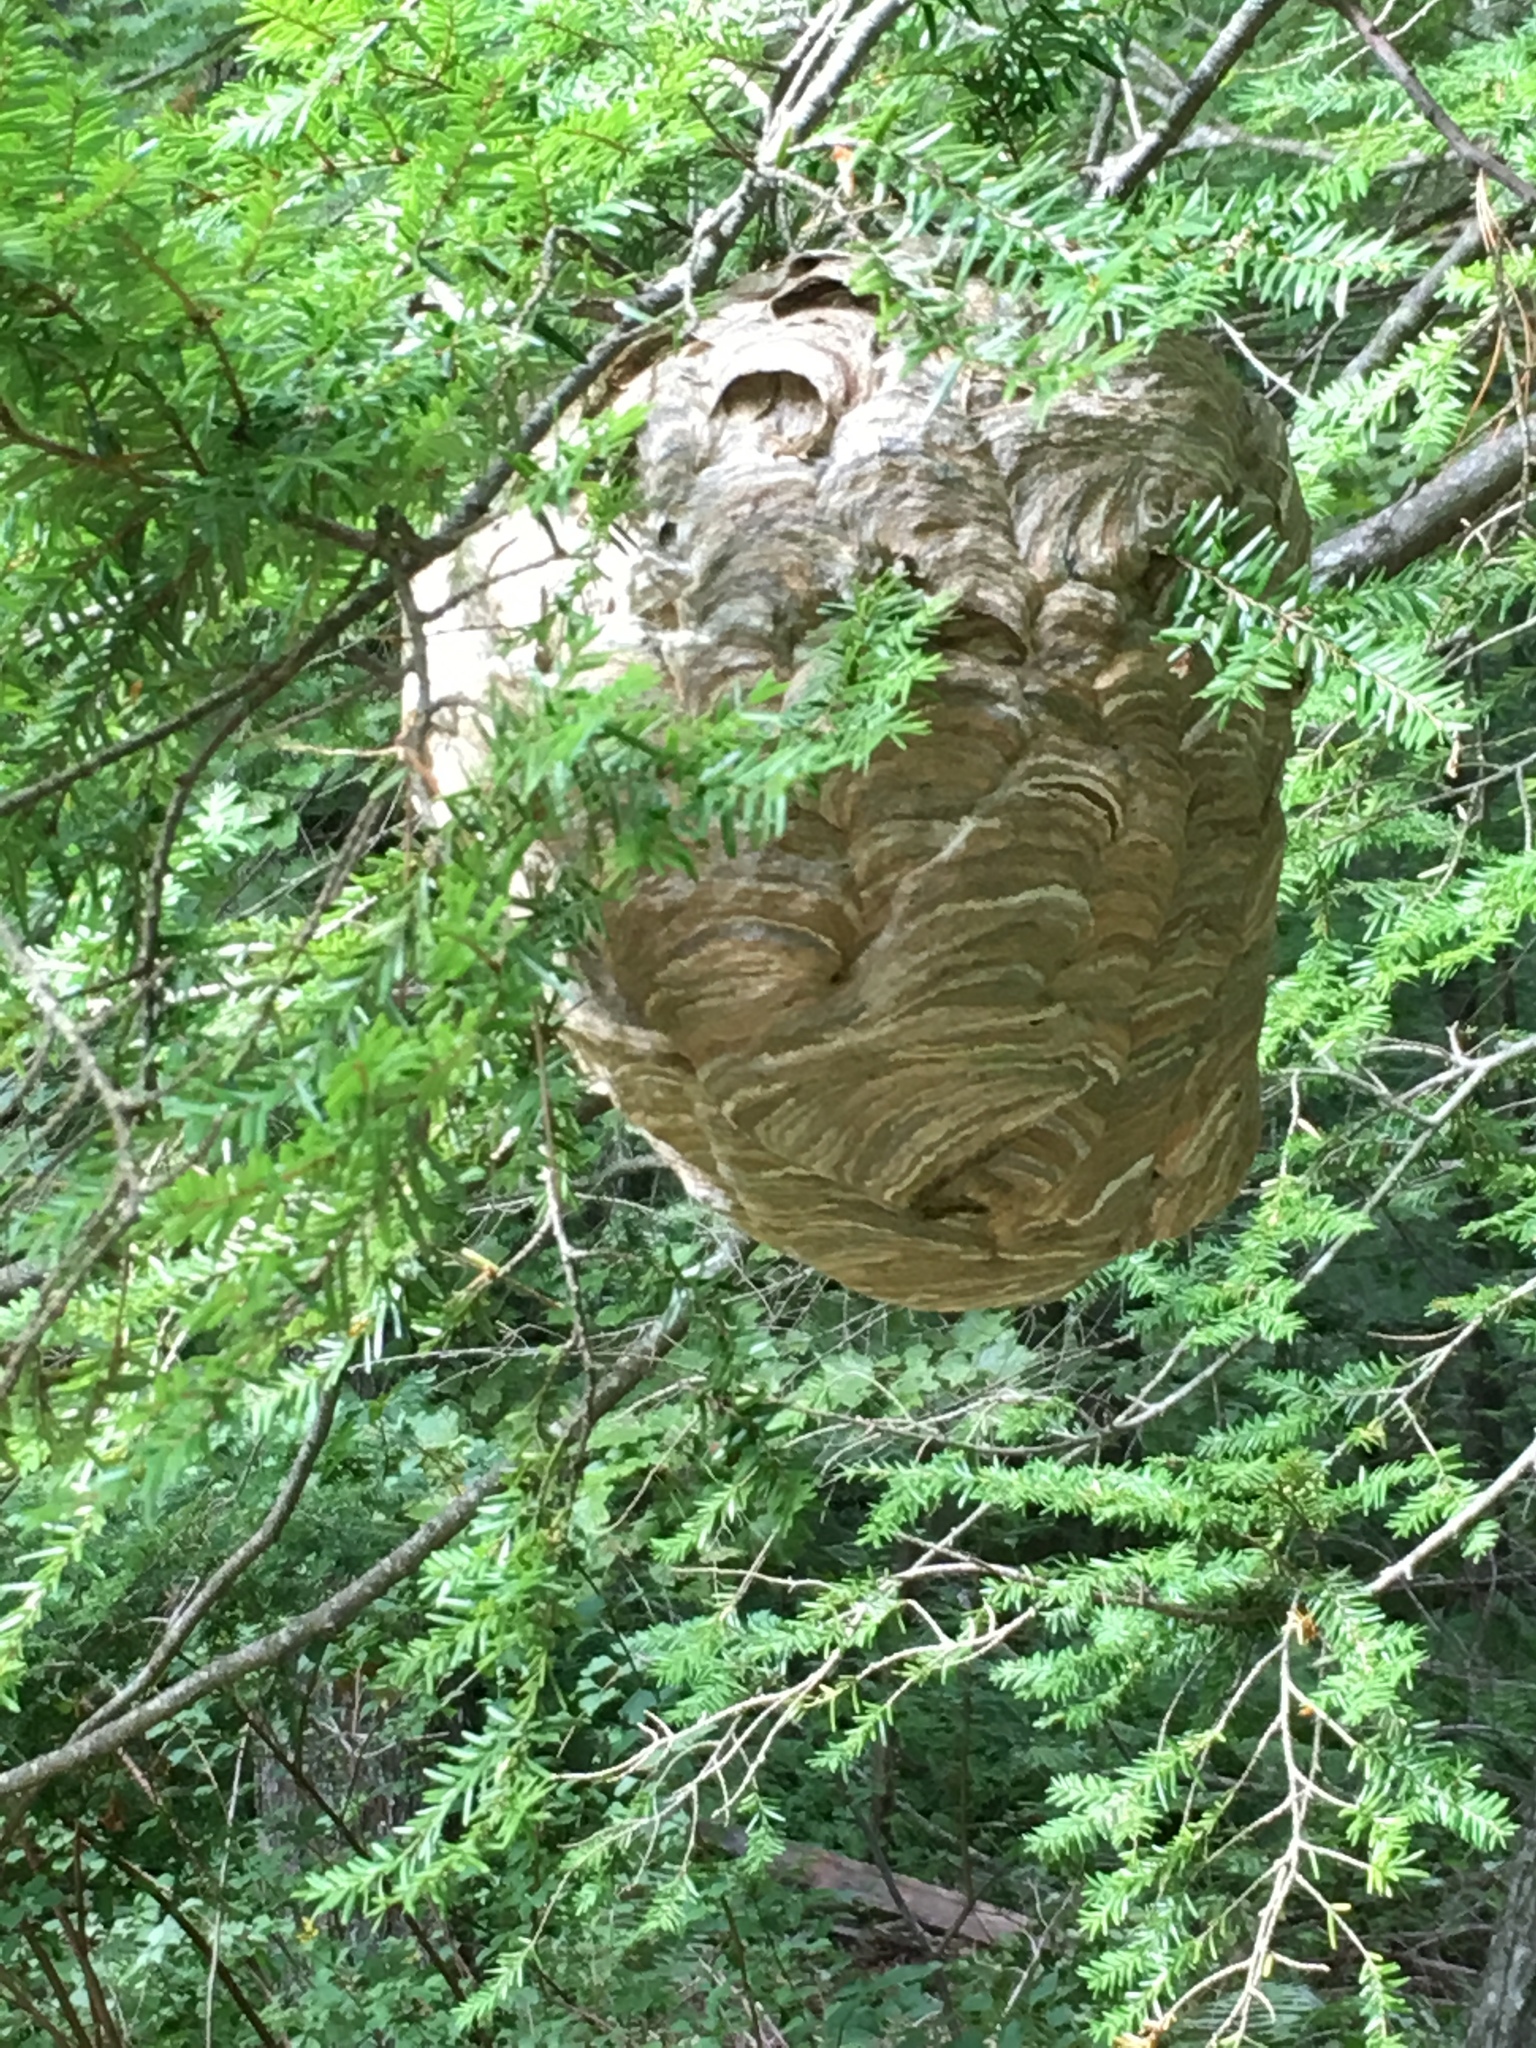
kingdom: Animalia
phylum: Arthropoda
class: Insecta
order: Hymenoptera
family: Vespidae
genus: Dolichovespula
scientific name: Dolichovespula maculata
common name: Bald-faced hornet
